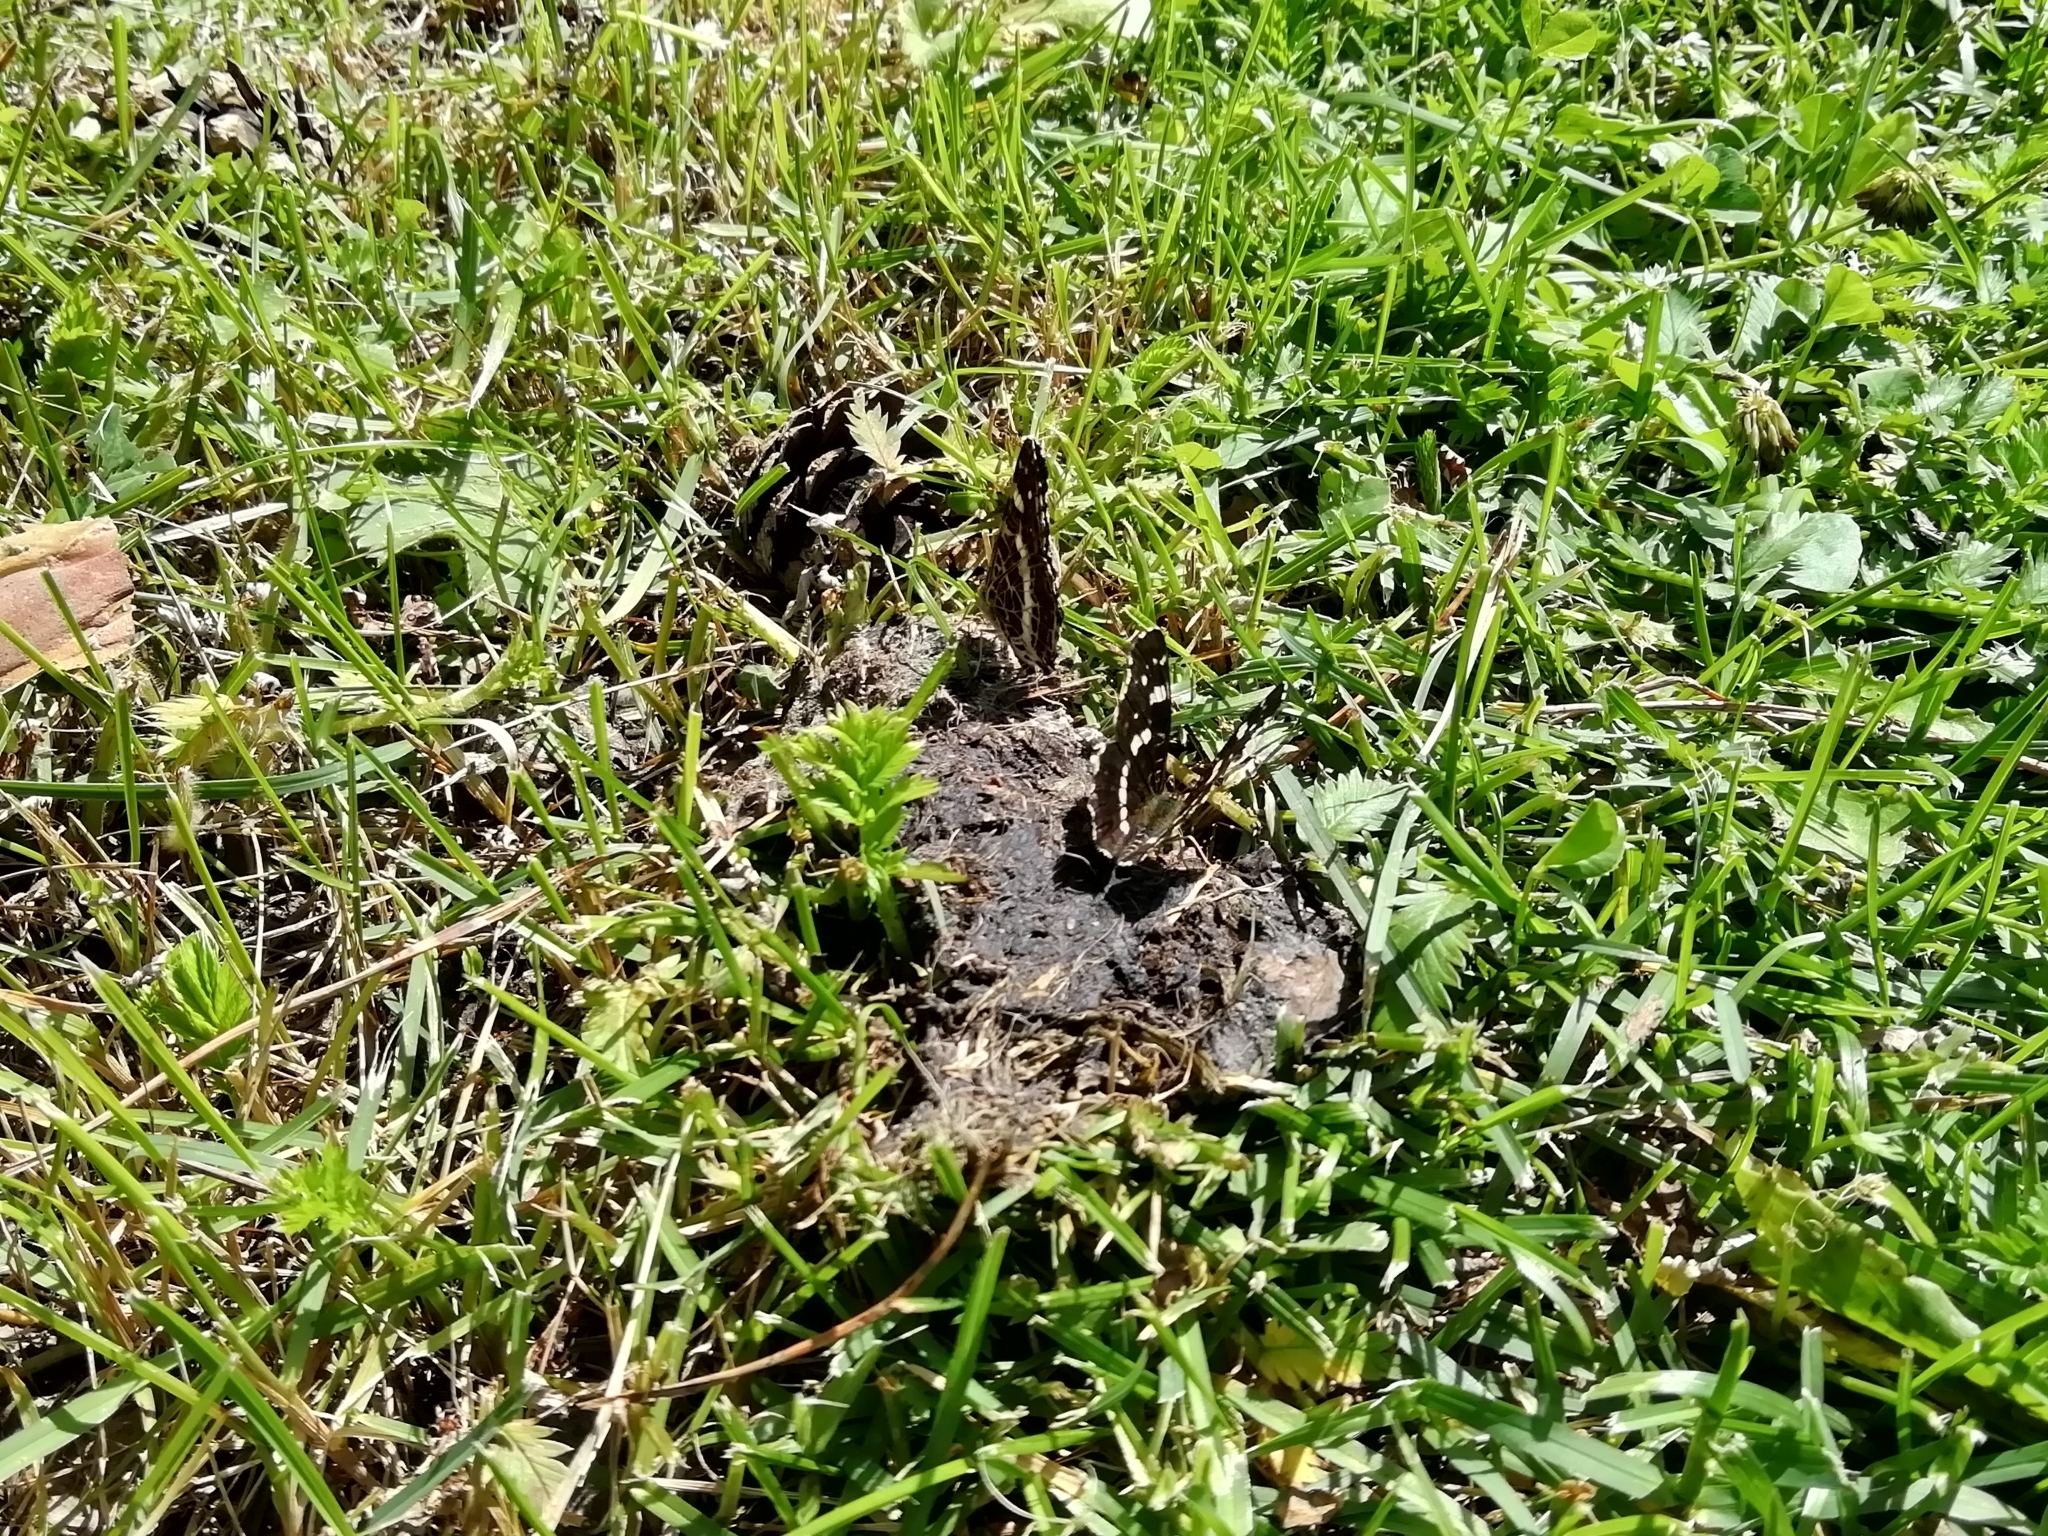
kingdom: Animalia
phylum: Arthropoda
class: Insecta
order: Lepidoptera
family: Nymphalidae
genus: Araschnia
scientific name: Araschnia levana
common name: Map butterfly
